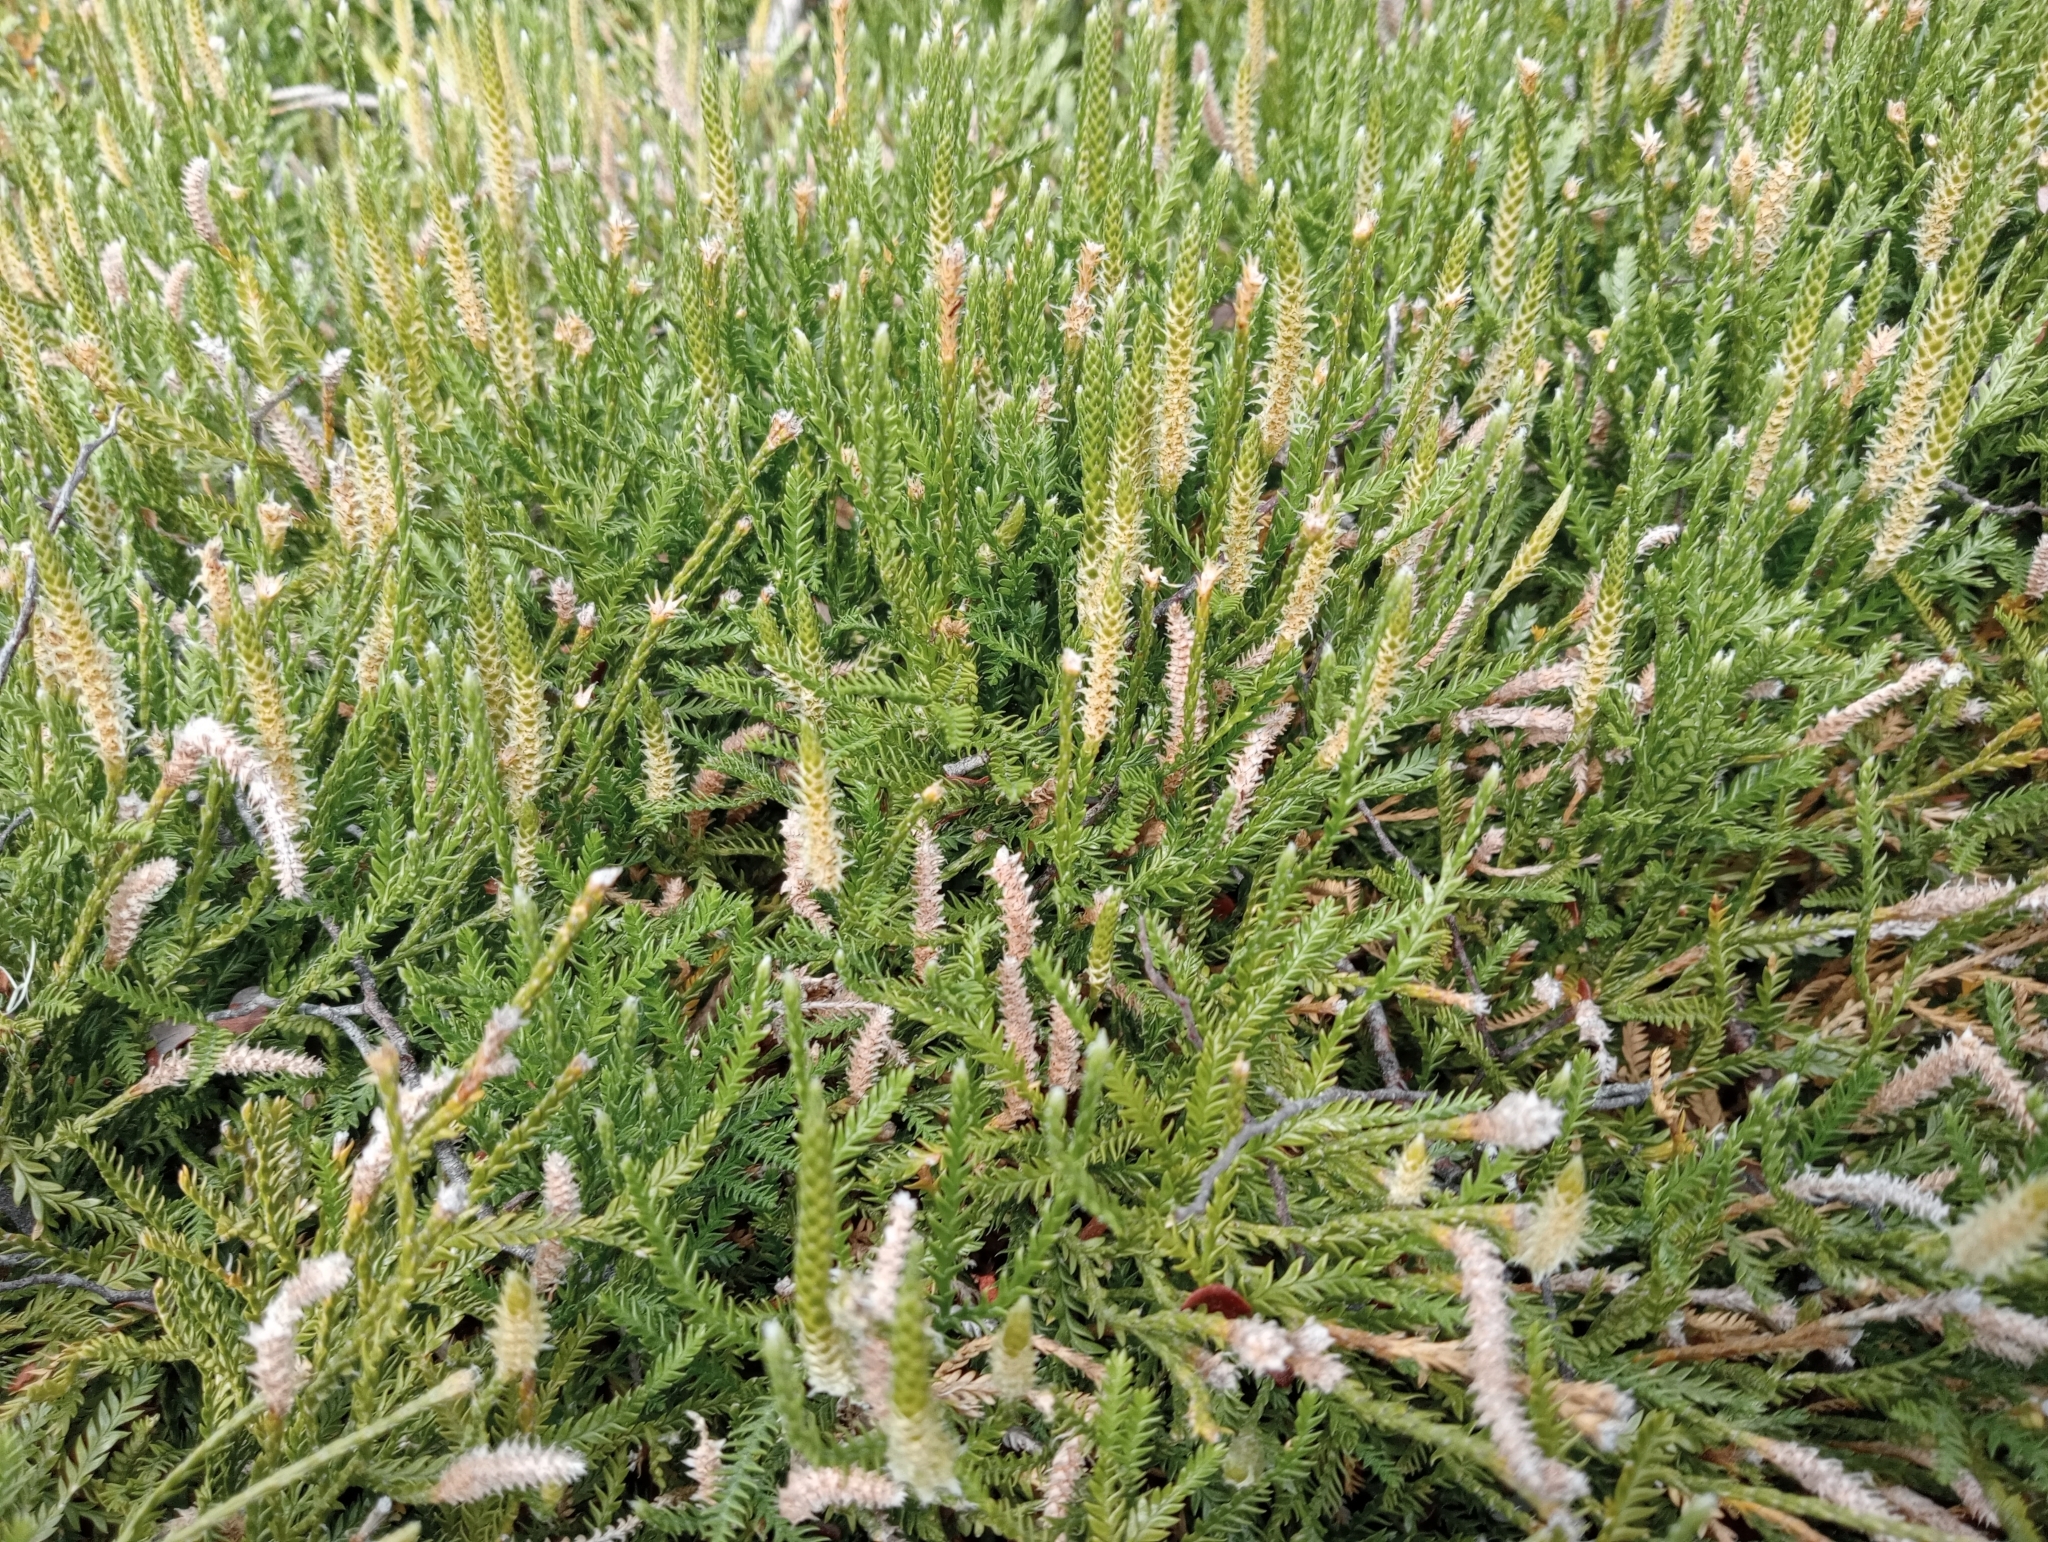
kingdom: Plantae
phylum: Tracheophyta
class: Lycopodiopsida
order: Lycopodiales
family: Lycopodiaceae
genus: Diphasium
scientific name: Diphasium scariosum
